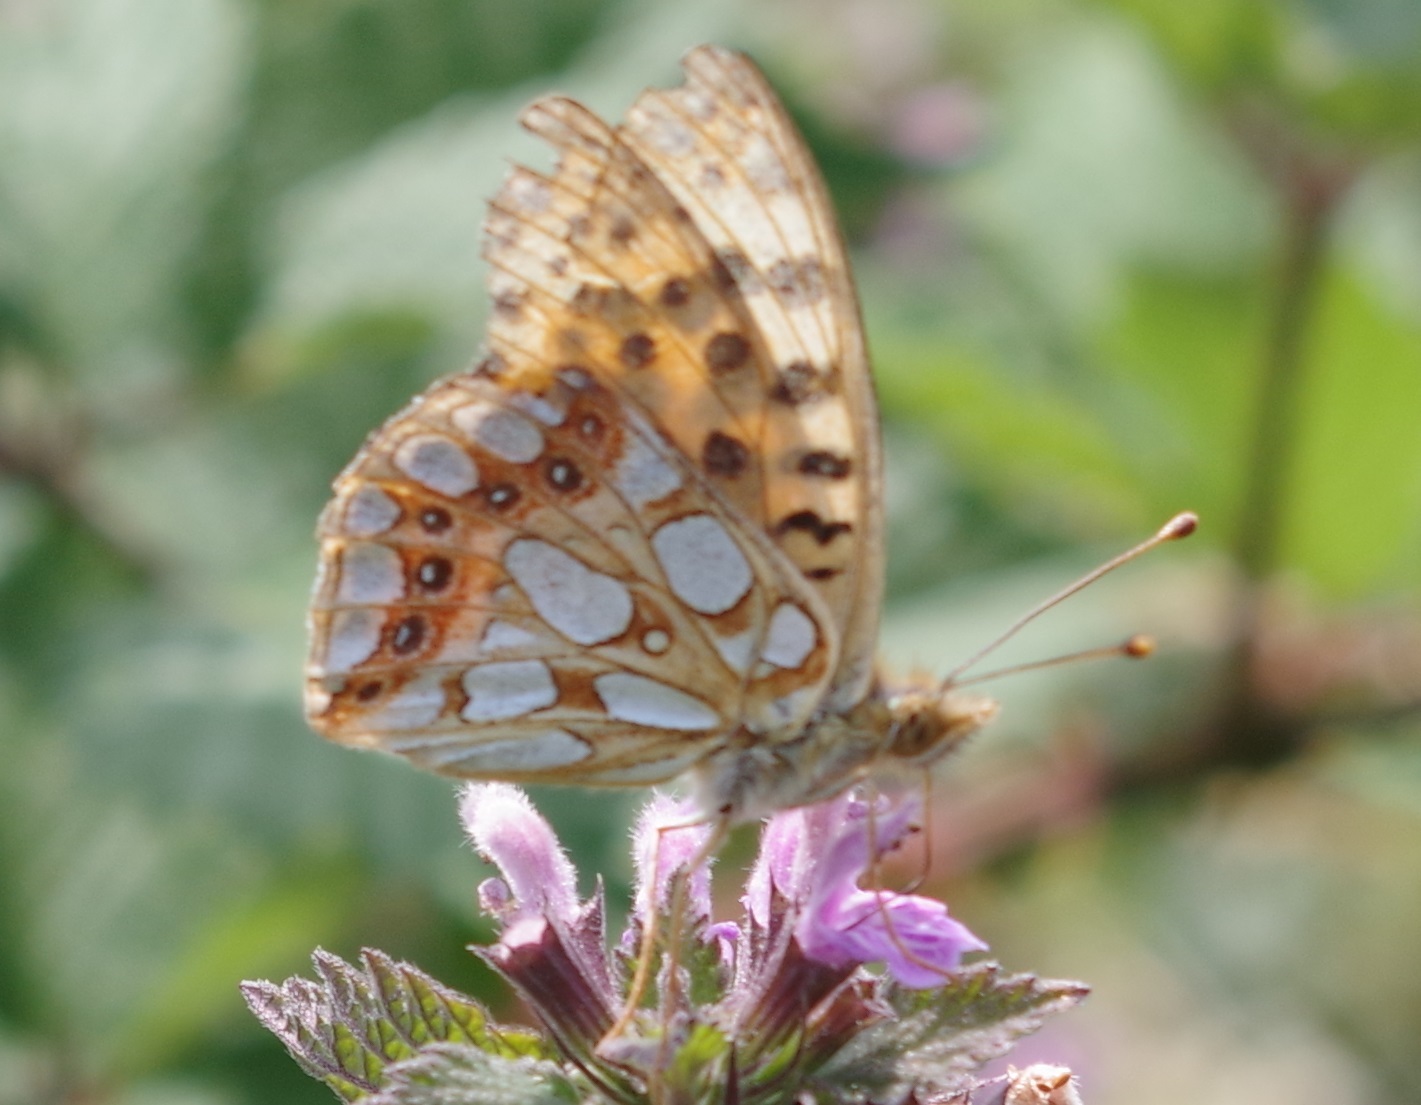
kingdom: Animalia
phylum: Arthropoda
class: Insecta
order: Lepidoptera
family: Nymphalidae
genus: Issoria
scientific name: Issoria lathonia
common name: Queen of spain fritillary
